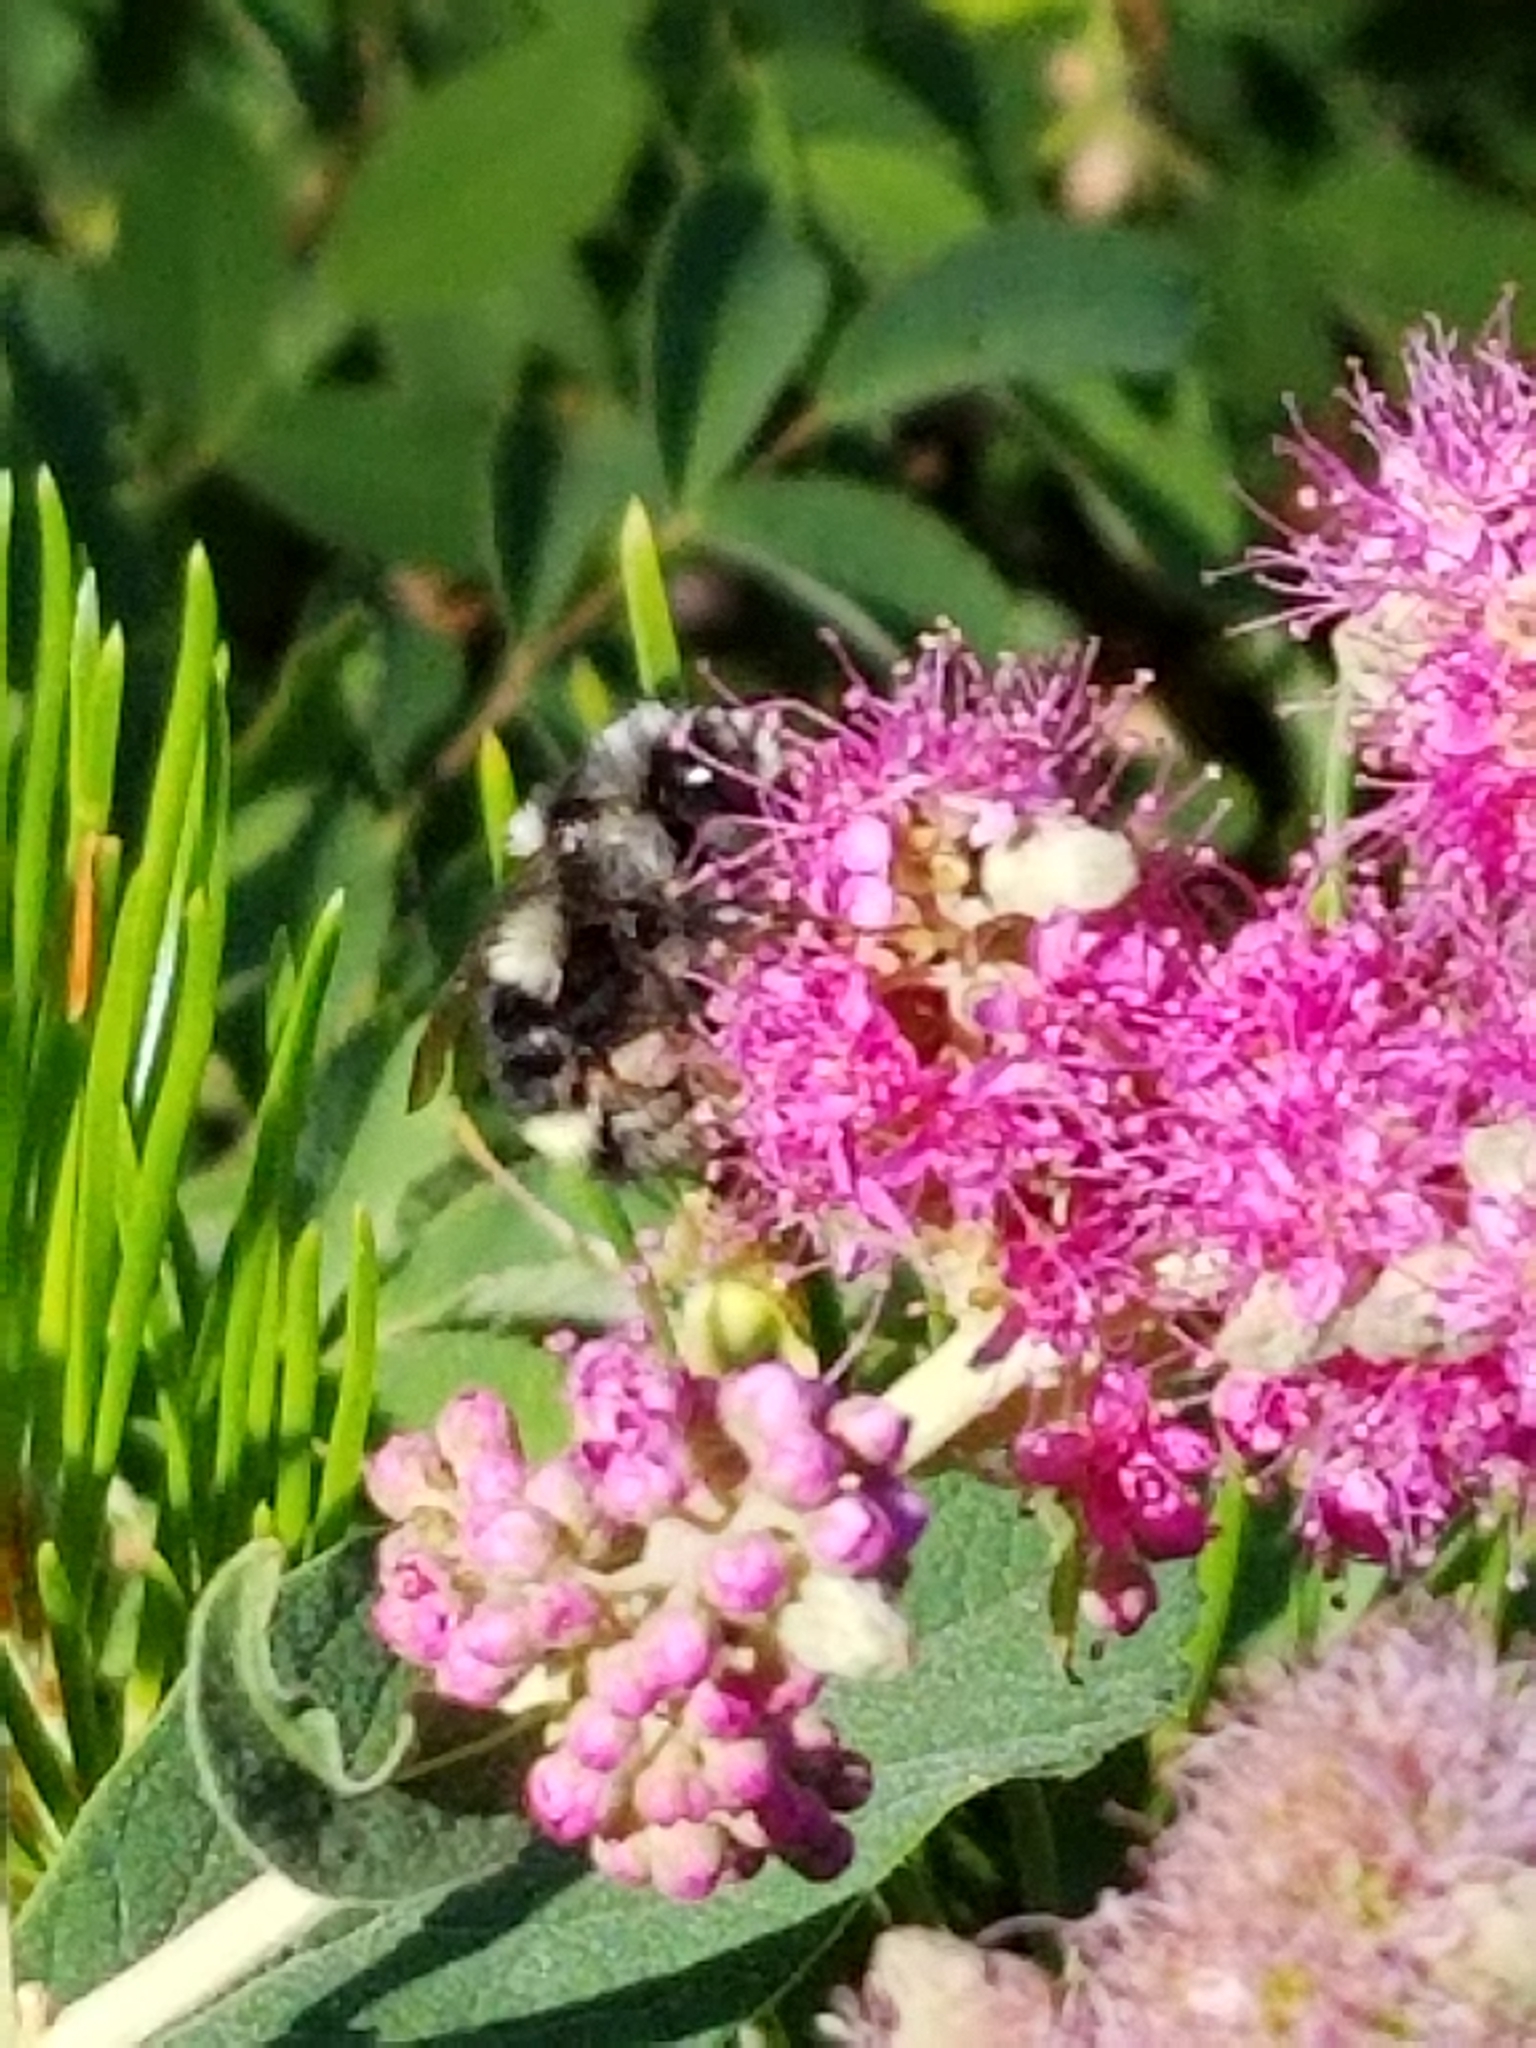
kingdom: Animalia
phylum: Arthropoda
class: Insecta
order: Hymenoptera
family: Apidae
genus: Bombus
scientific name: Bombus vancouverensis
